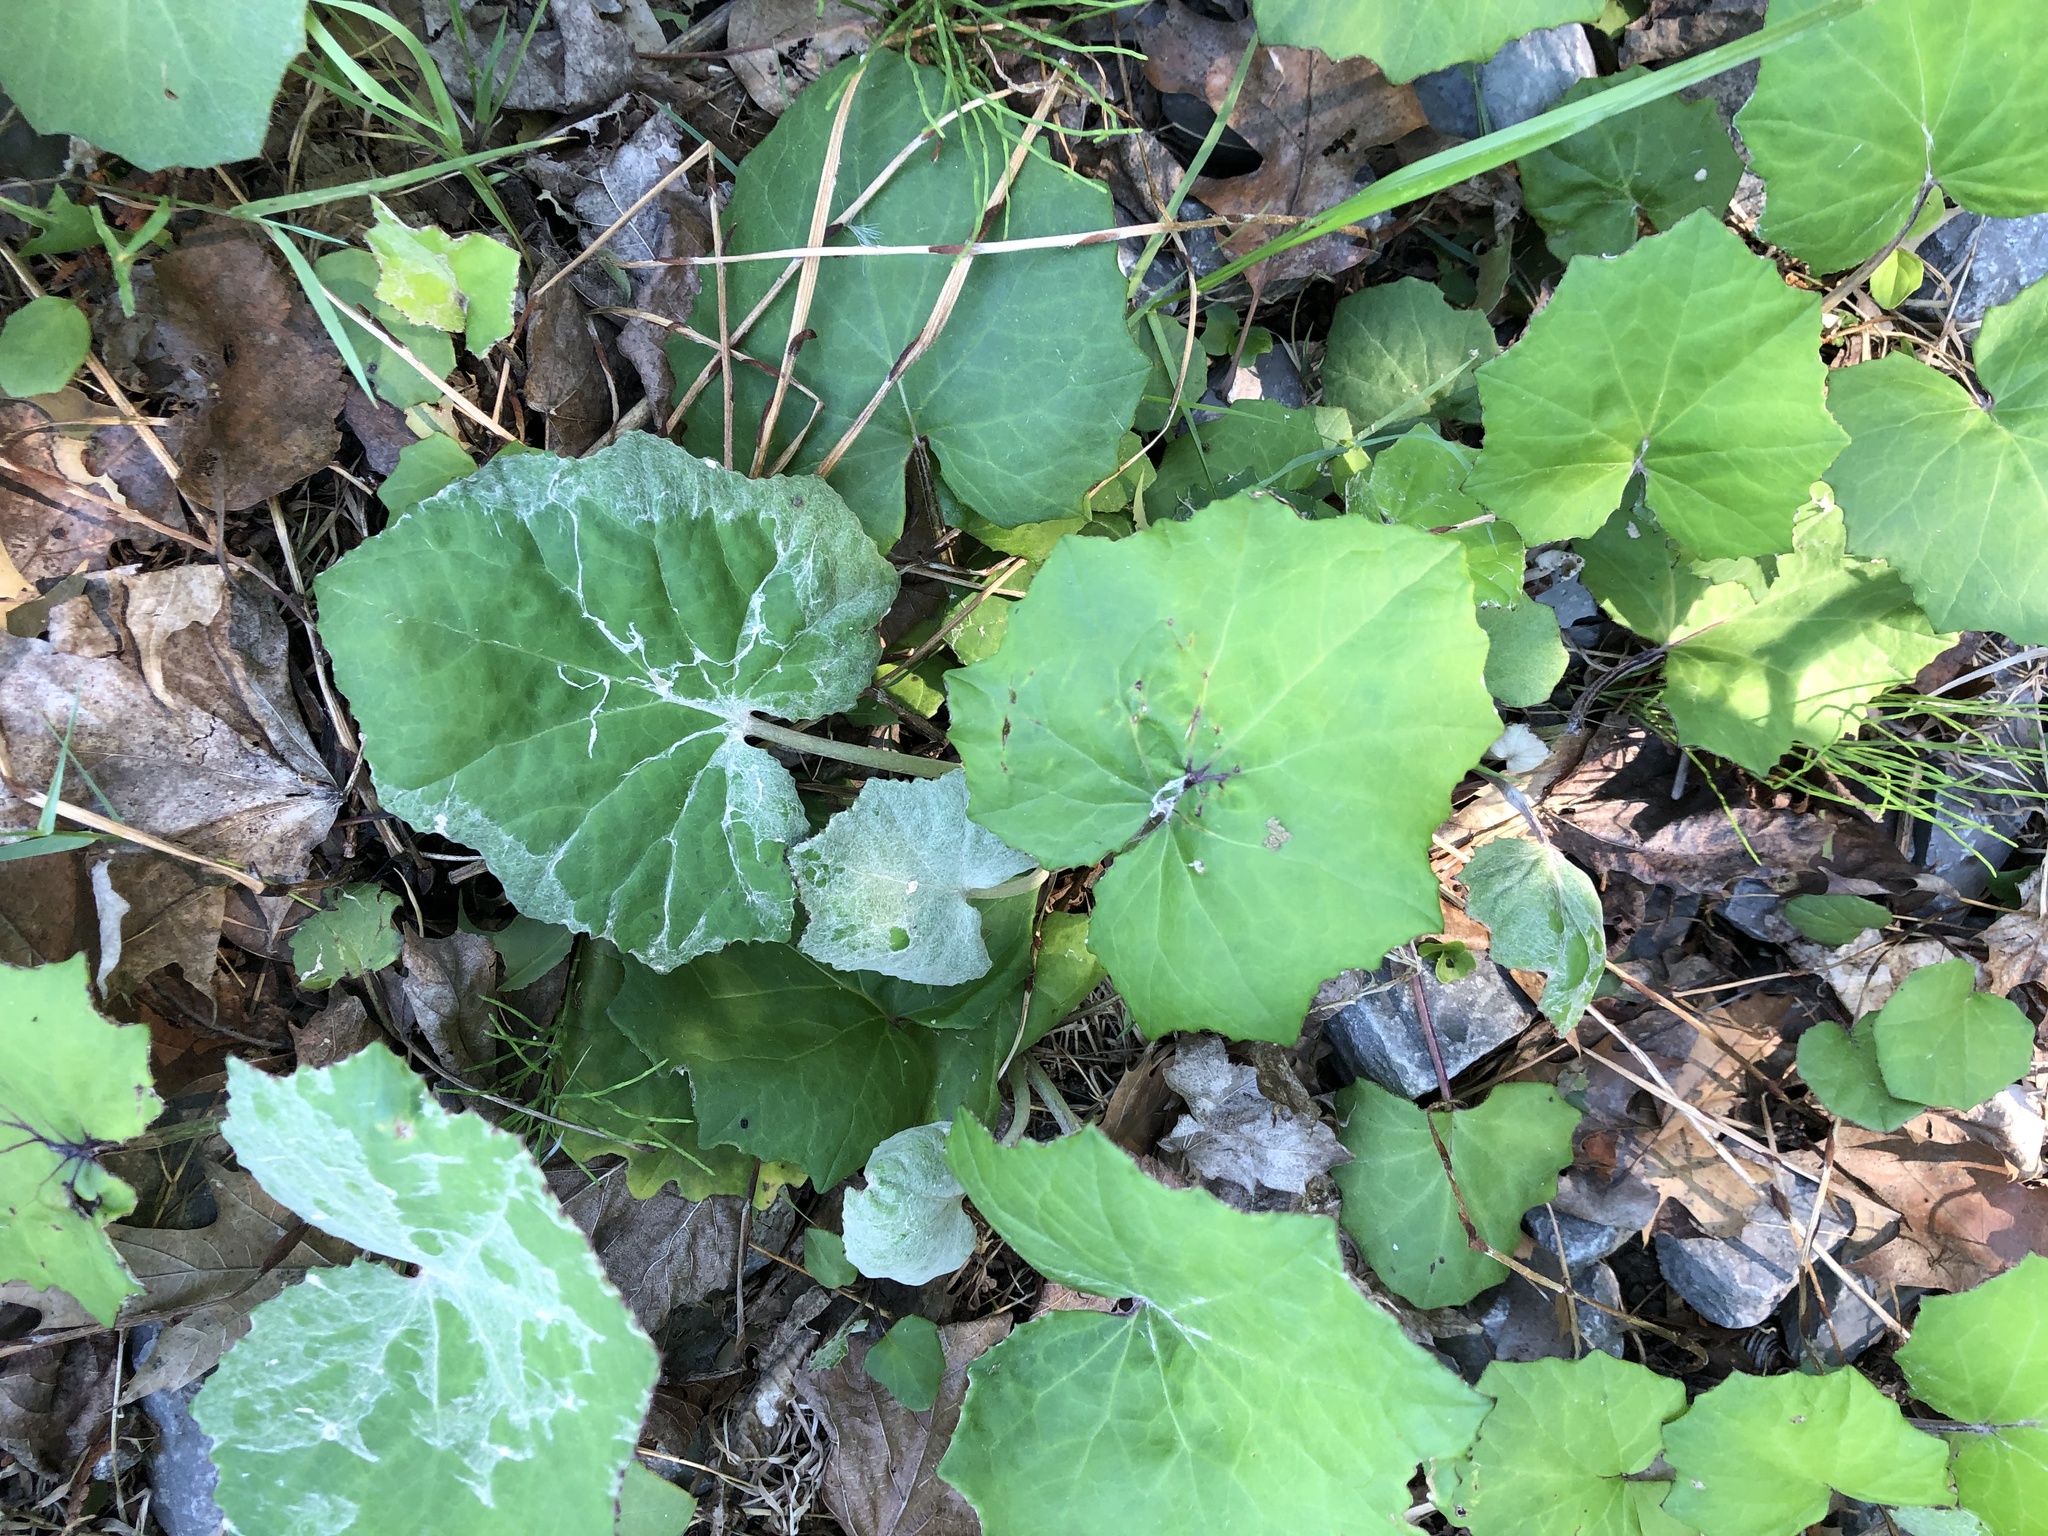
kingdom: Plantae
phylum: Tracheophyta
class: Magnoliopsida
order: Asterales
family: Asteraceae
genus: Tussilago
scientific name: Tussilago farfara
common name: Coltsfoot
